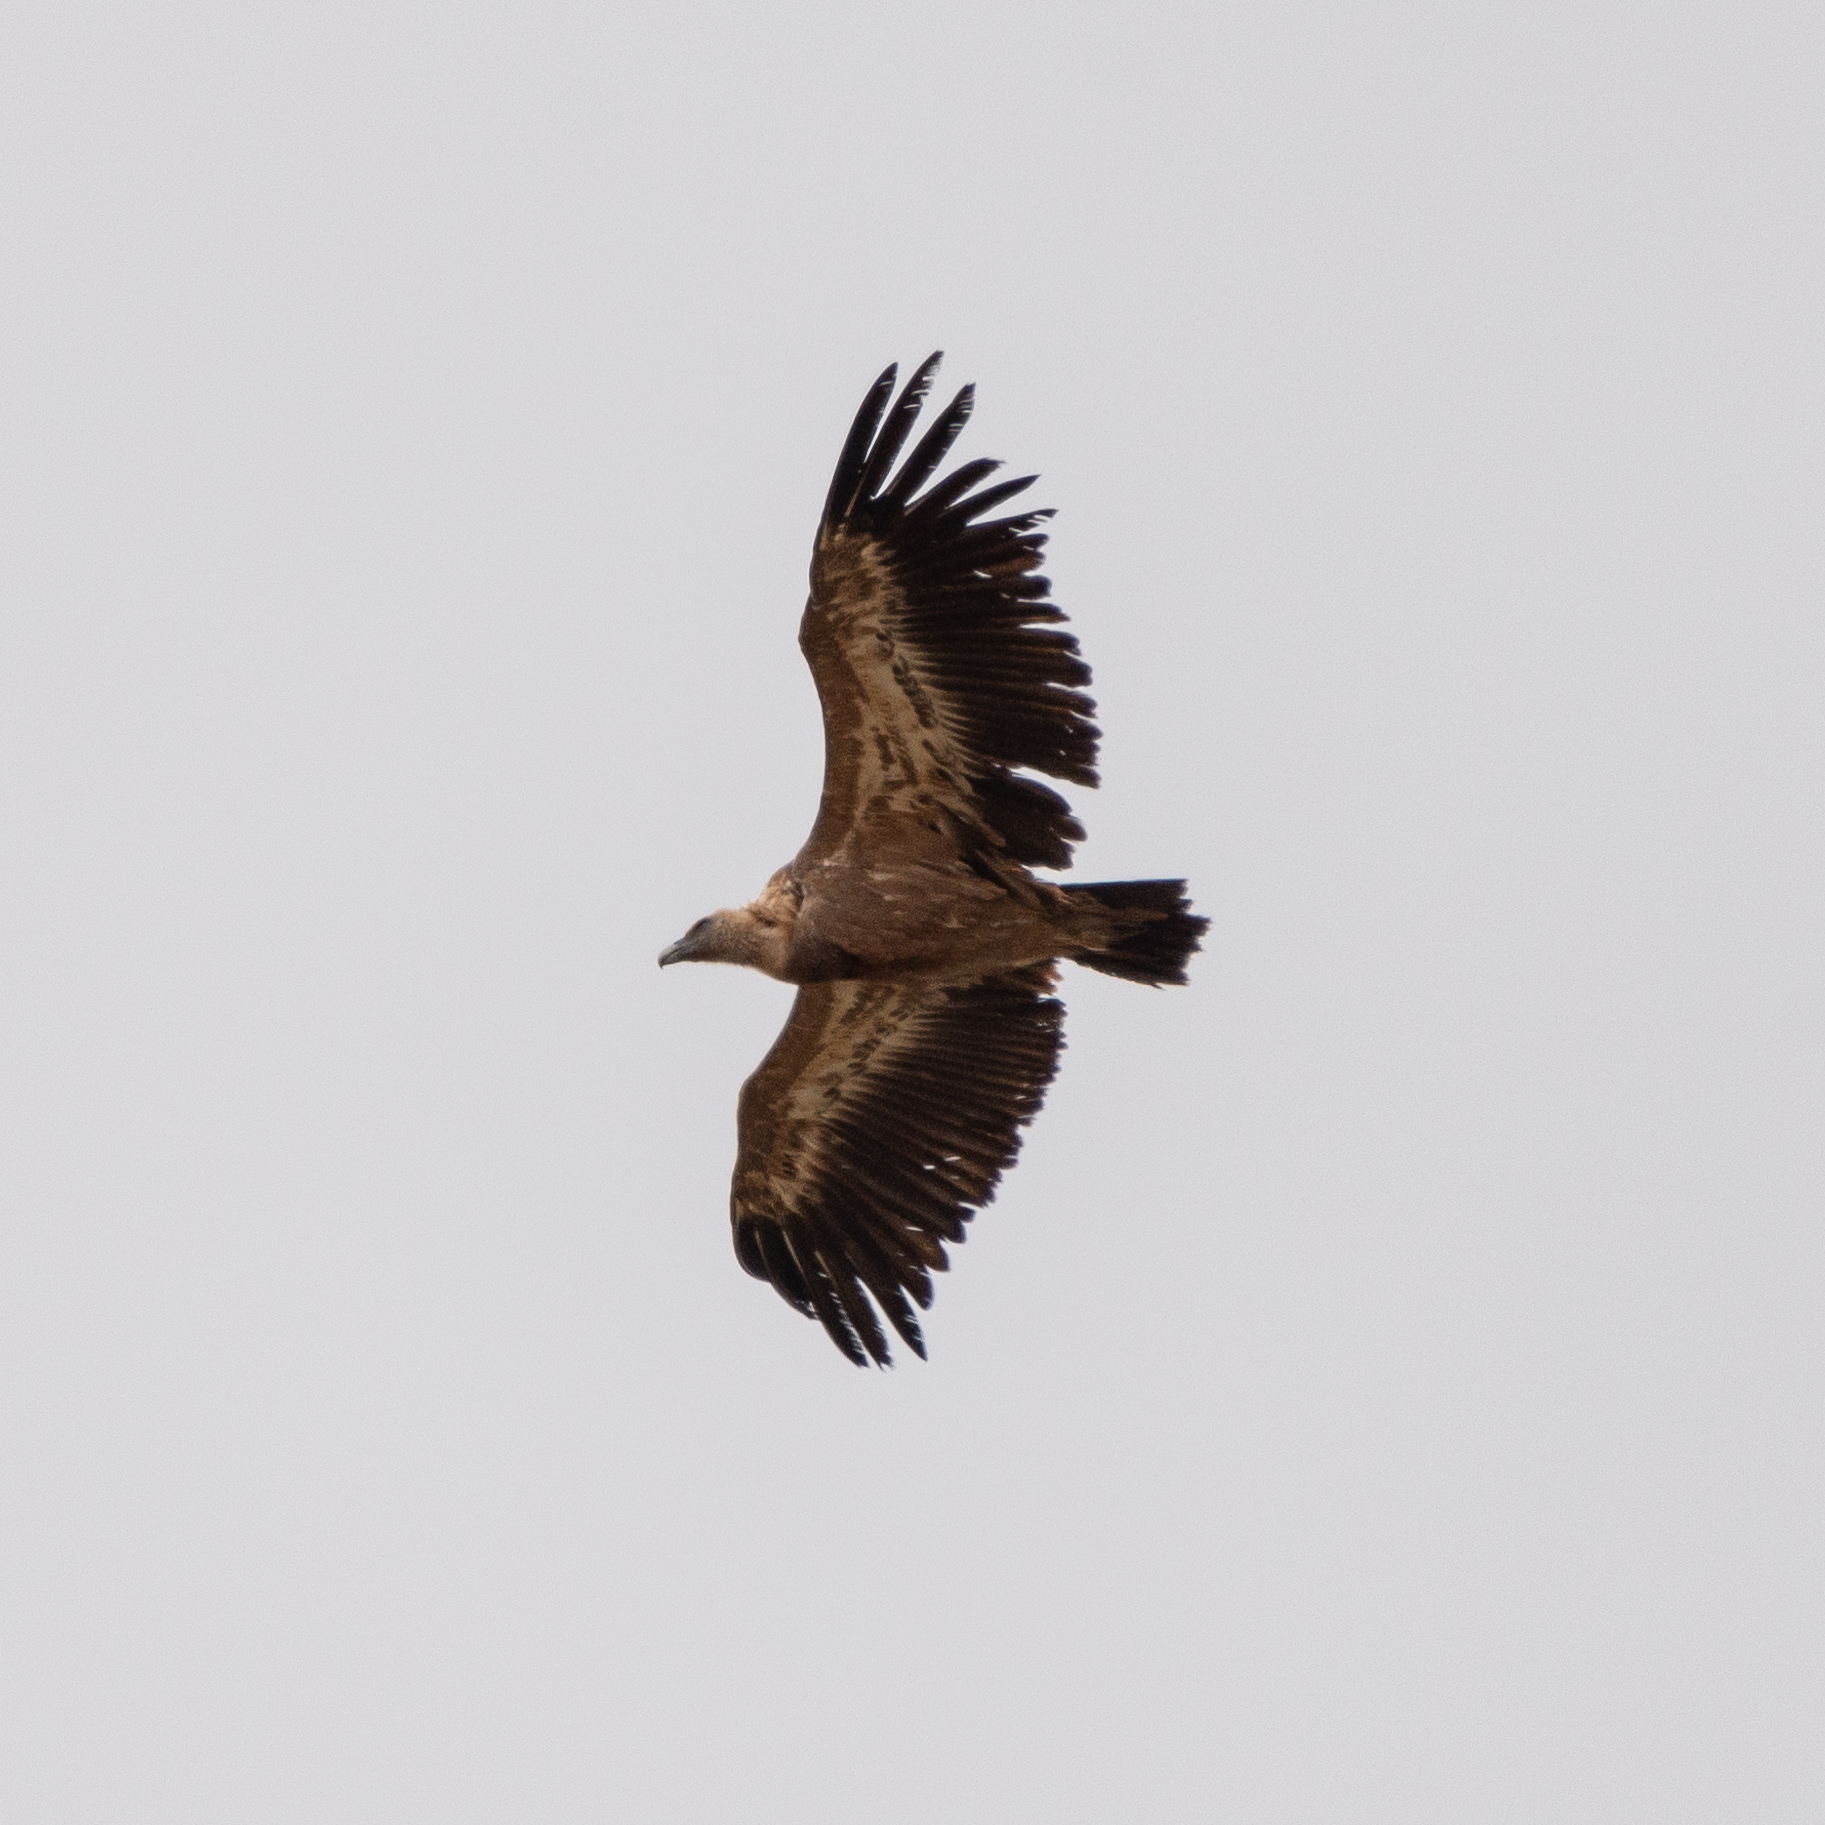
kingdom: Animalia
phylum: Chordata
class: Aves
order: Accipitriformes
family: Accipitridae
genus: Gyps
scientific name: Gyps fulvus
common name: Griffon vulture
